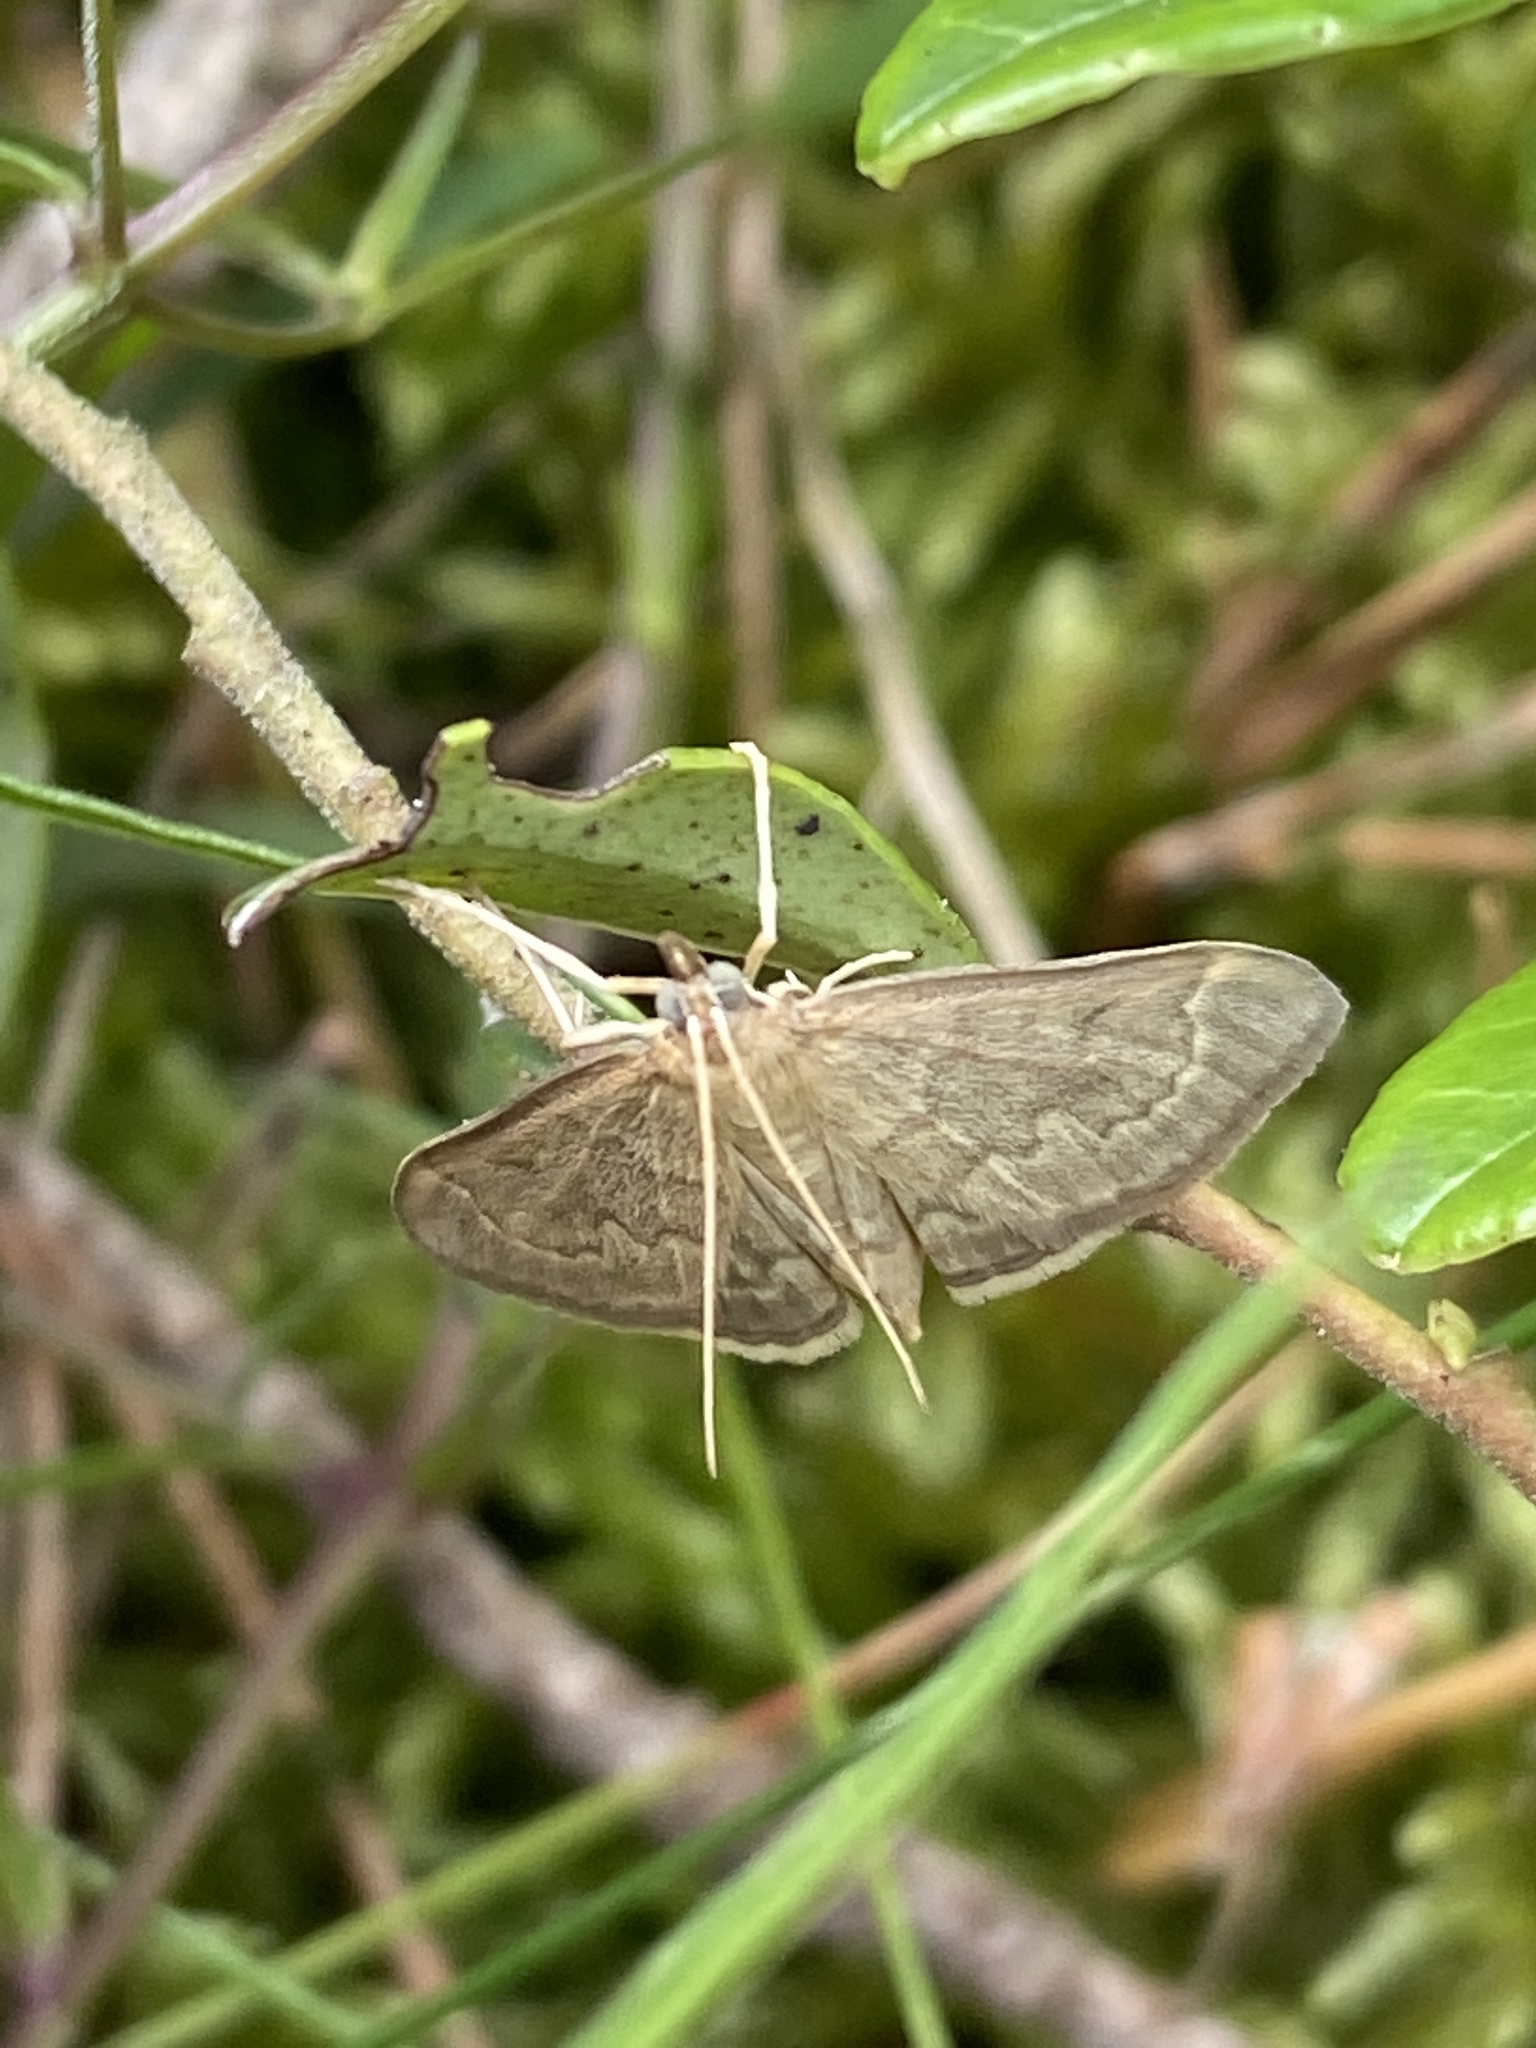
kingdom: Animalia
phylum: Arthropoda
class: Insecta
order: Lepidoptera
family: Crambidae
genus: Anania
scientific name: Anania fuscalis
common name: Cinerous pearl
